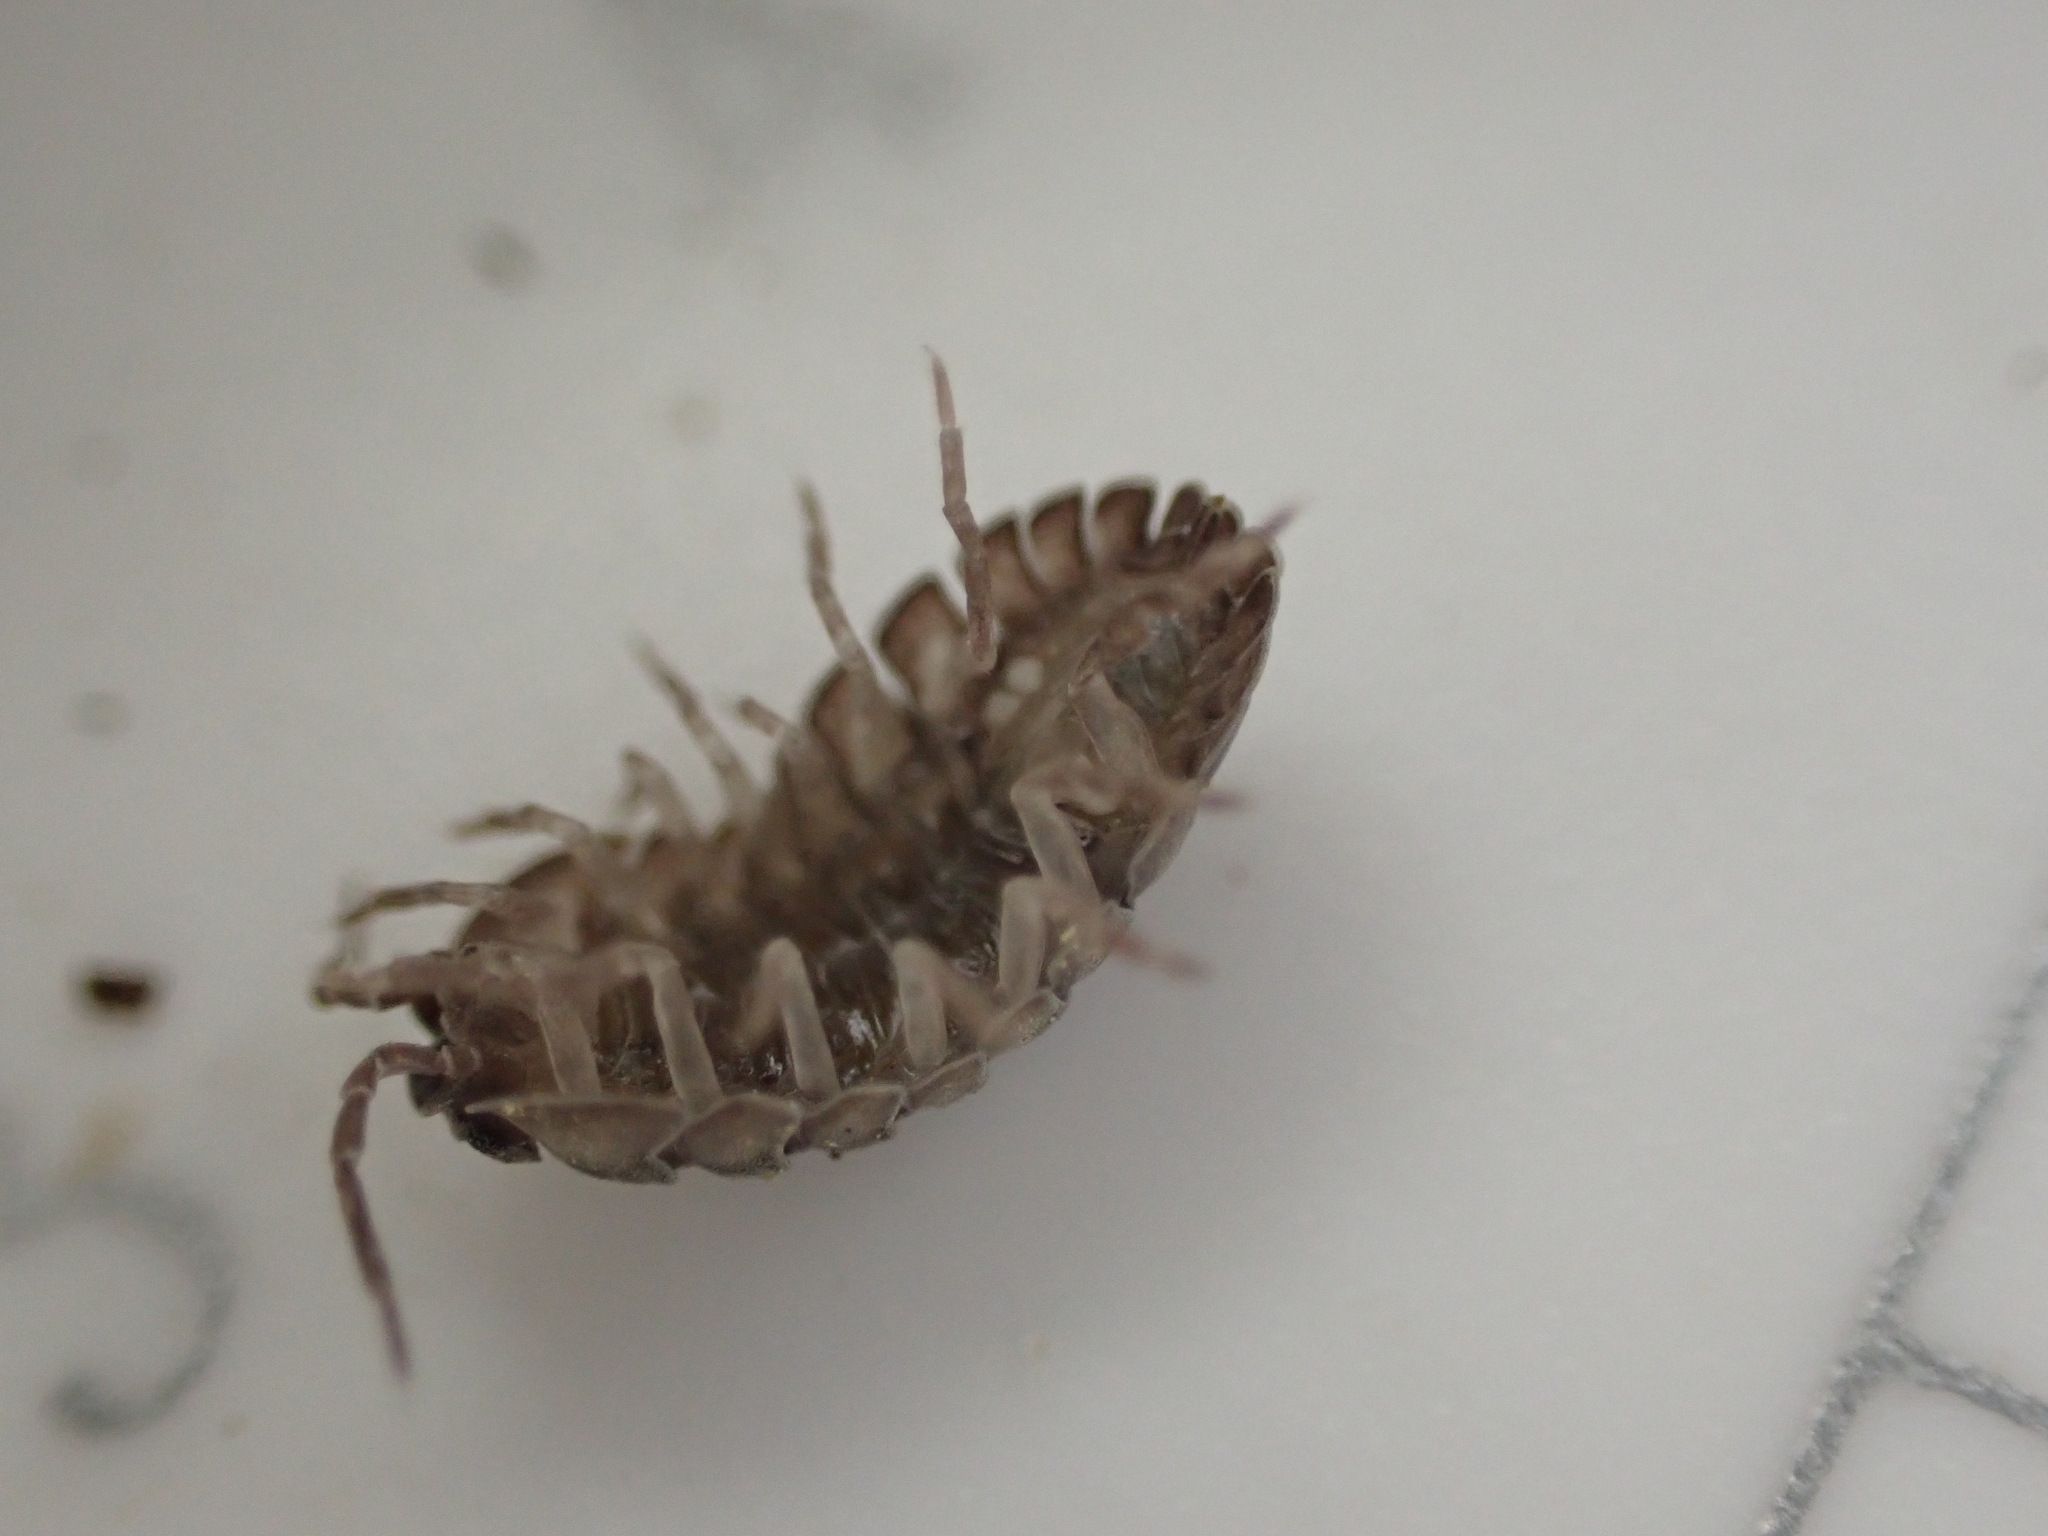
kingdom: Animalia
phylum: Arthropoda
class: Malacostraca
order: Isopoda
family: Armadillidiidae
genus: Armadillidium
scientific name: Armadillidium nasatum
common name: Isopod
